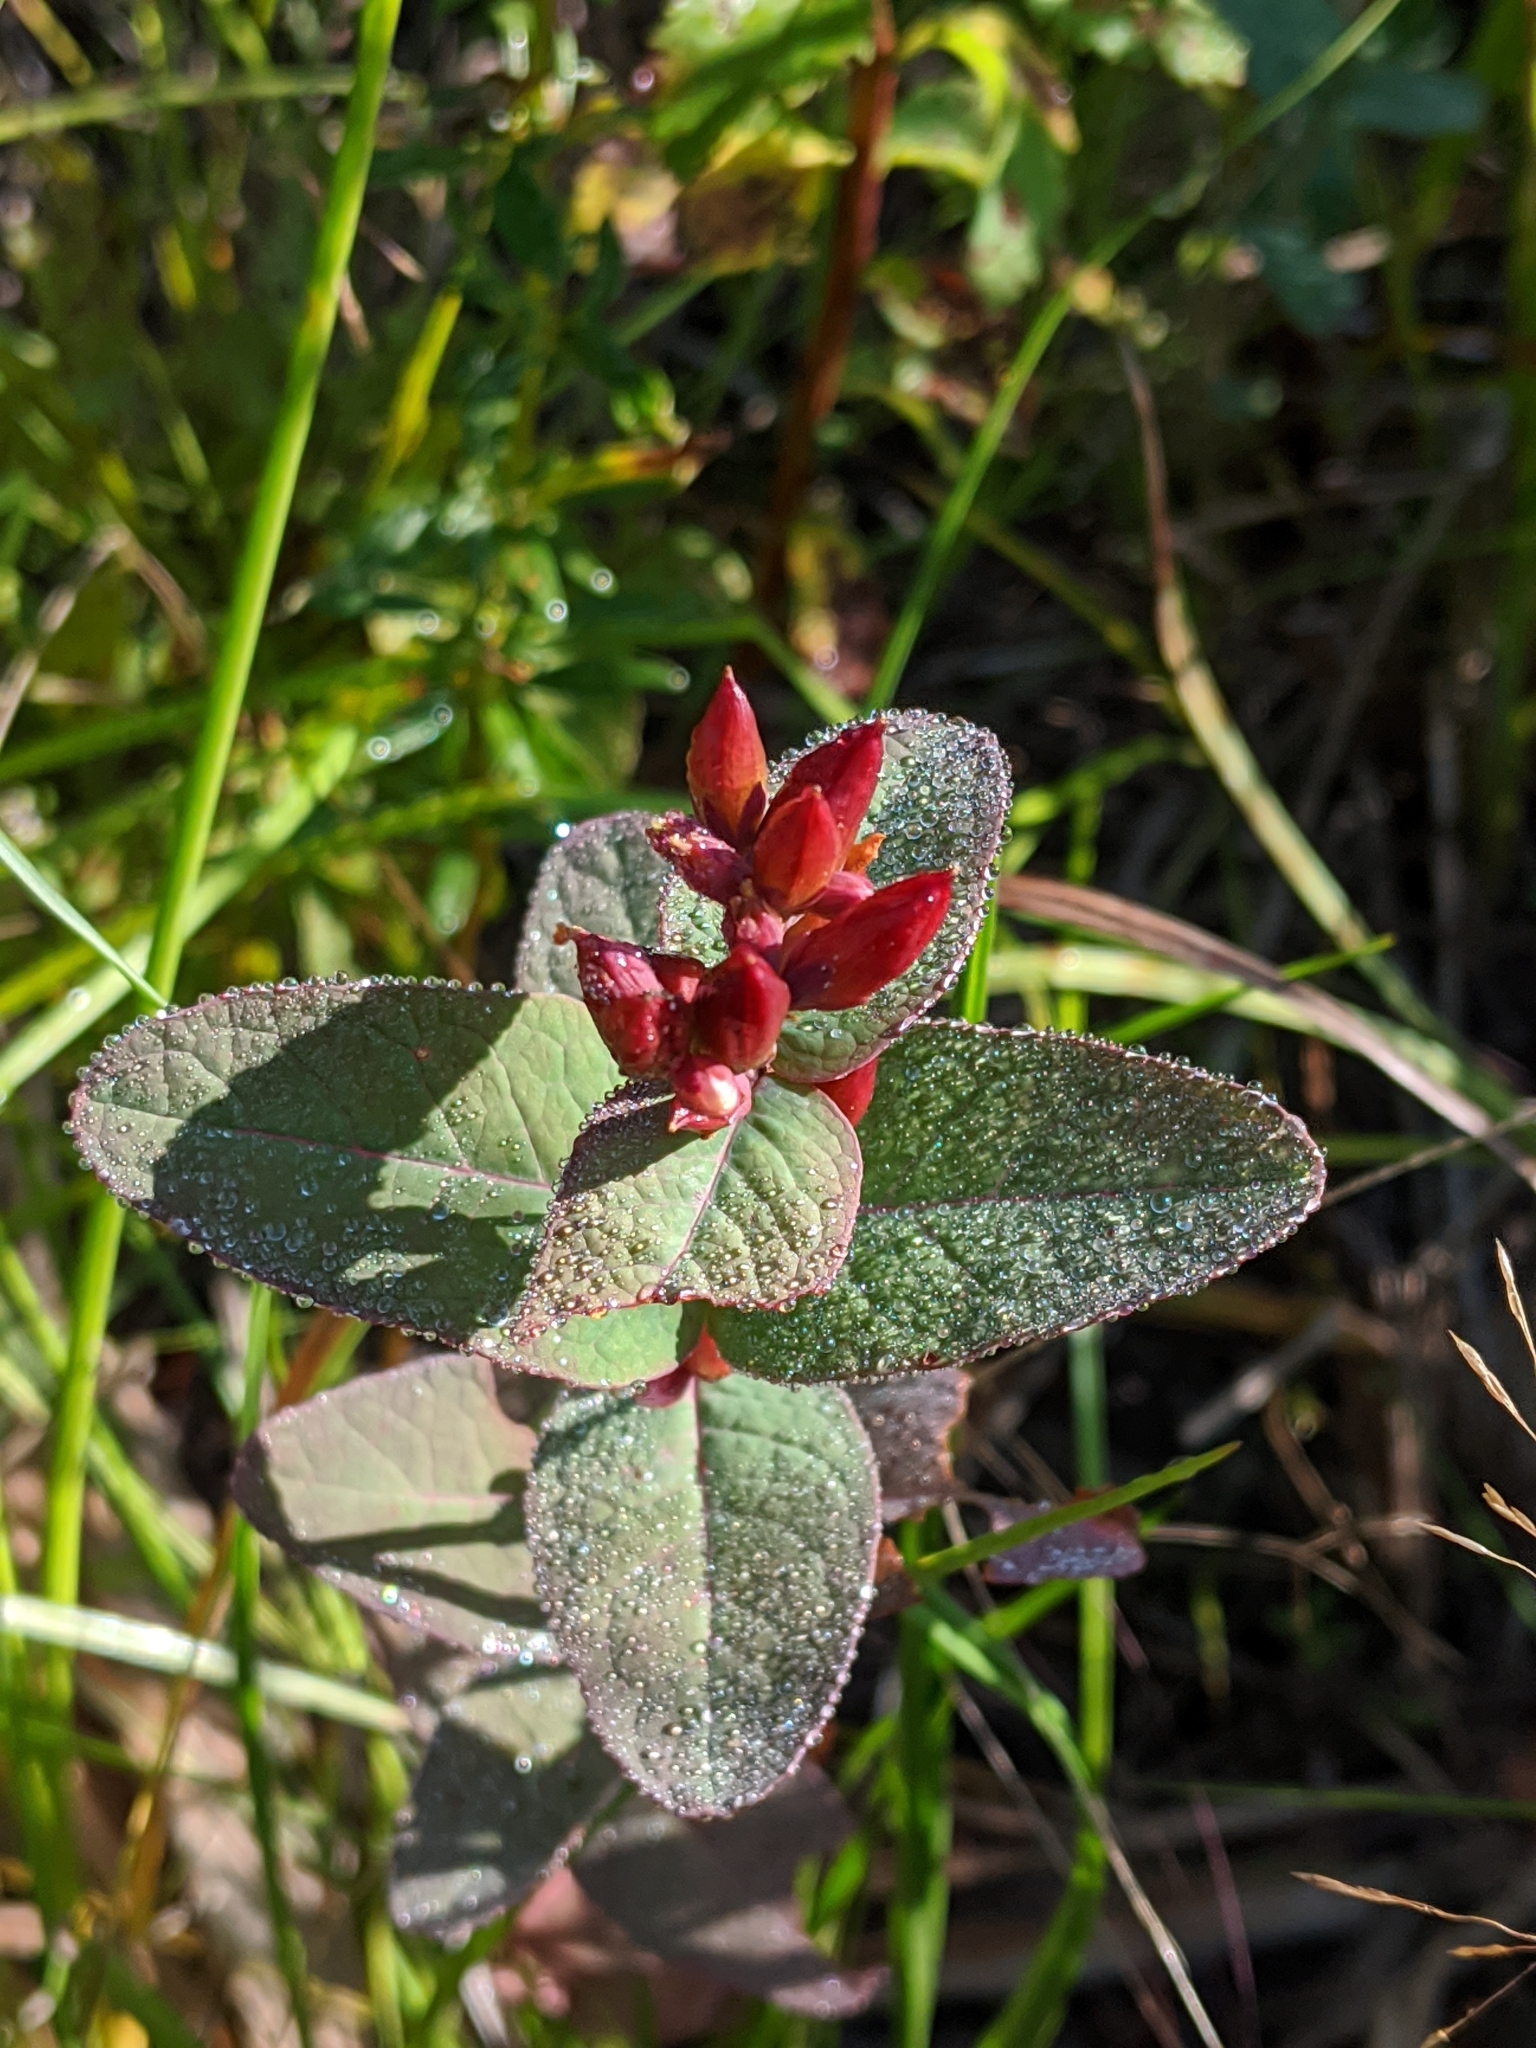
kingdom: Plantae
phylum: Tracheophyta
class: Magnoliopsida
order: Malpighiales
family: Hypericaceae
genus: Triadenum
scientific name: Triadenum fraseri
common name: Fraser's marsh st. johnswort
